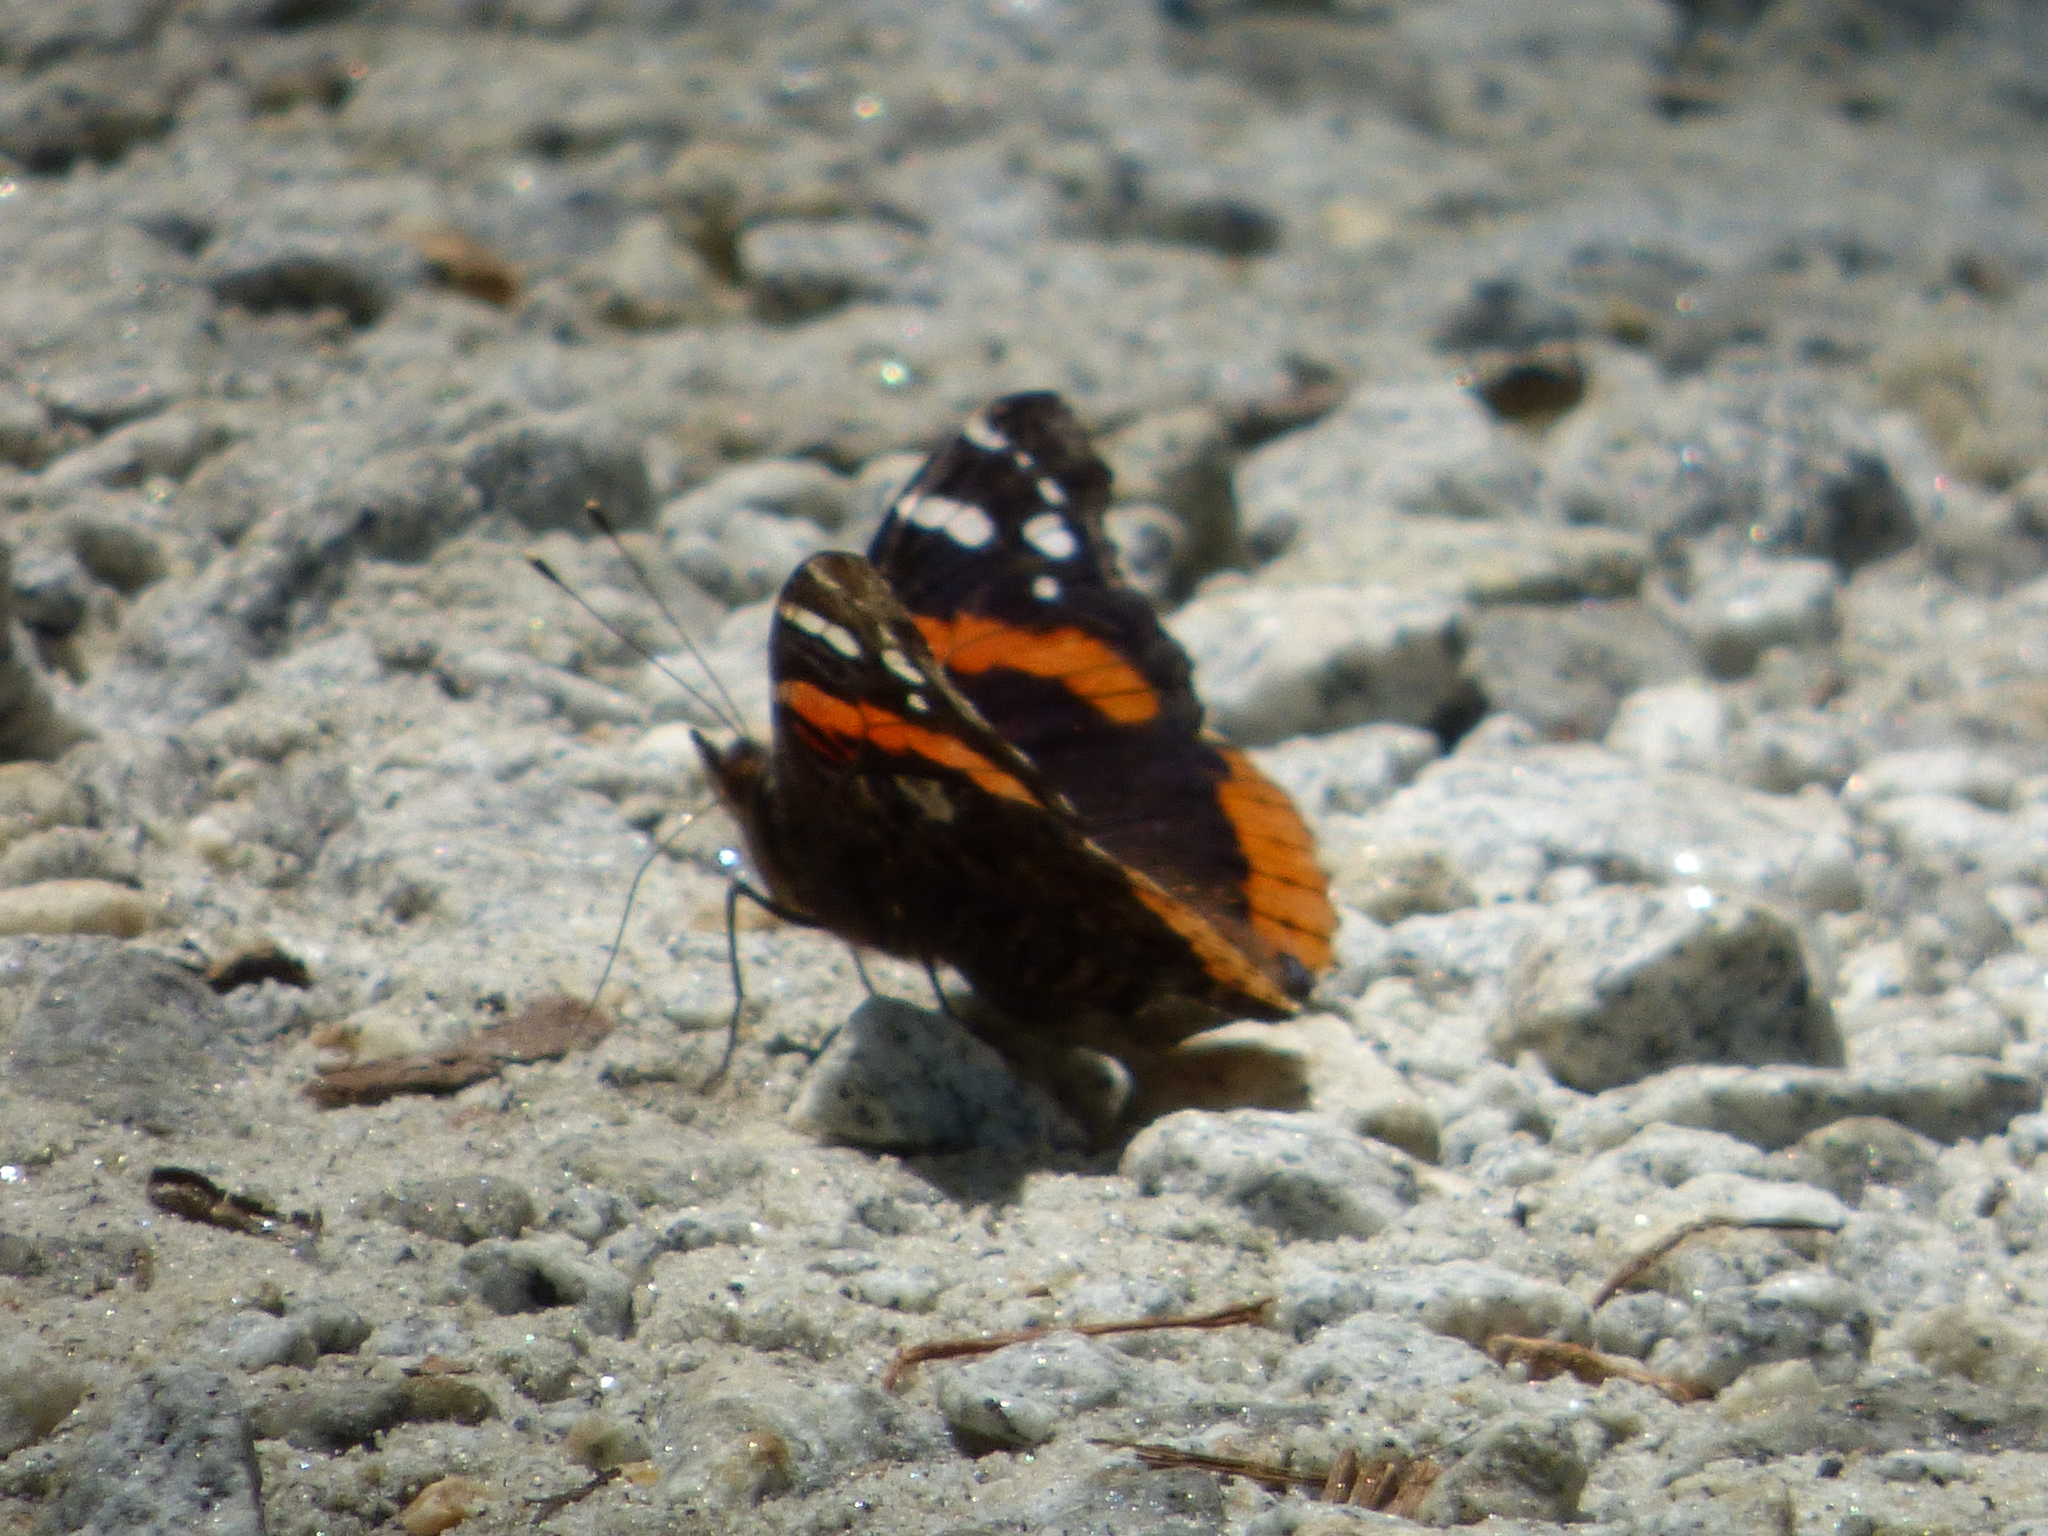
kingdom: Animalia
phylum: Arthropoda
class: Insecta
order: Lepidoptera
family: Nymphalidae
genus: Vanessa
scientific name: Vanessa atalanta
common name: Red admiral
